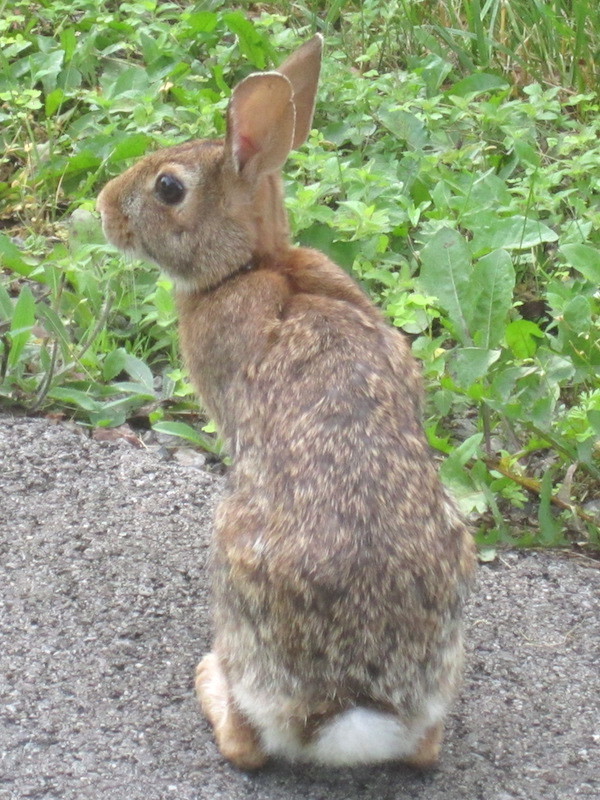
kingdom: Animalia
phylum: Chordata
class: Mammalia
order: Lagomorpha
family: Leporidae
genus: Sylvilagus
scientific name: Sylvilagus floridanus
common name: Eastern cottontail
